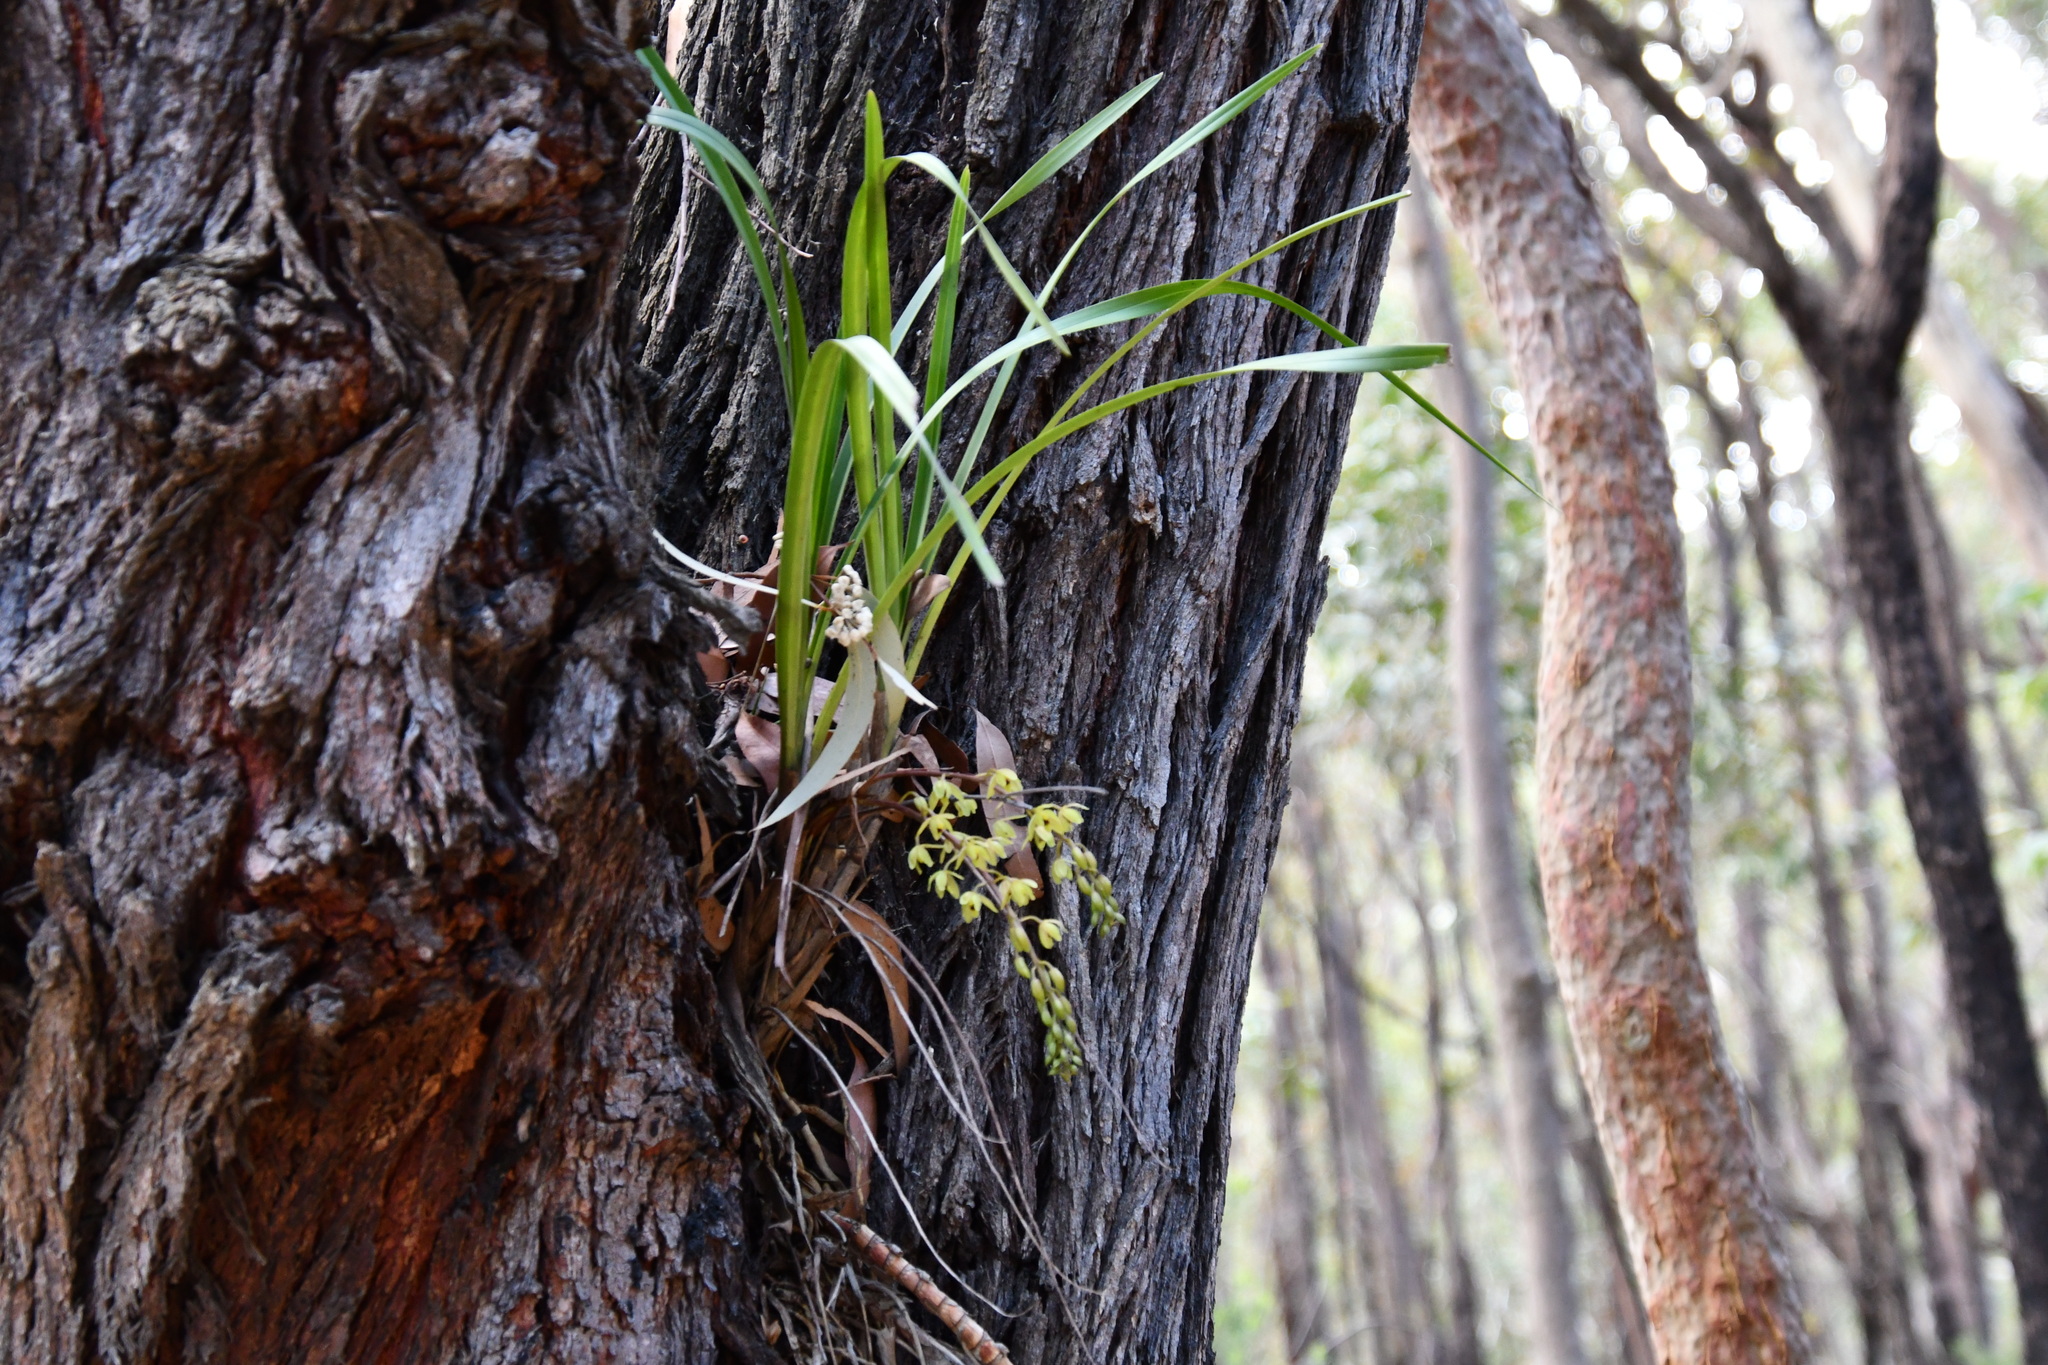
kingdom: Plantae
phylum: Tracheophyta
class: Liliopsida
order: Asparagales
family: Orchidaceae
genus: Cymbidium
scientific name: Cymbidium suave
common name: Snake orchid
